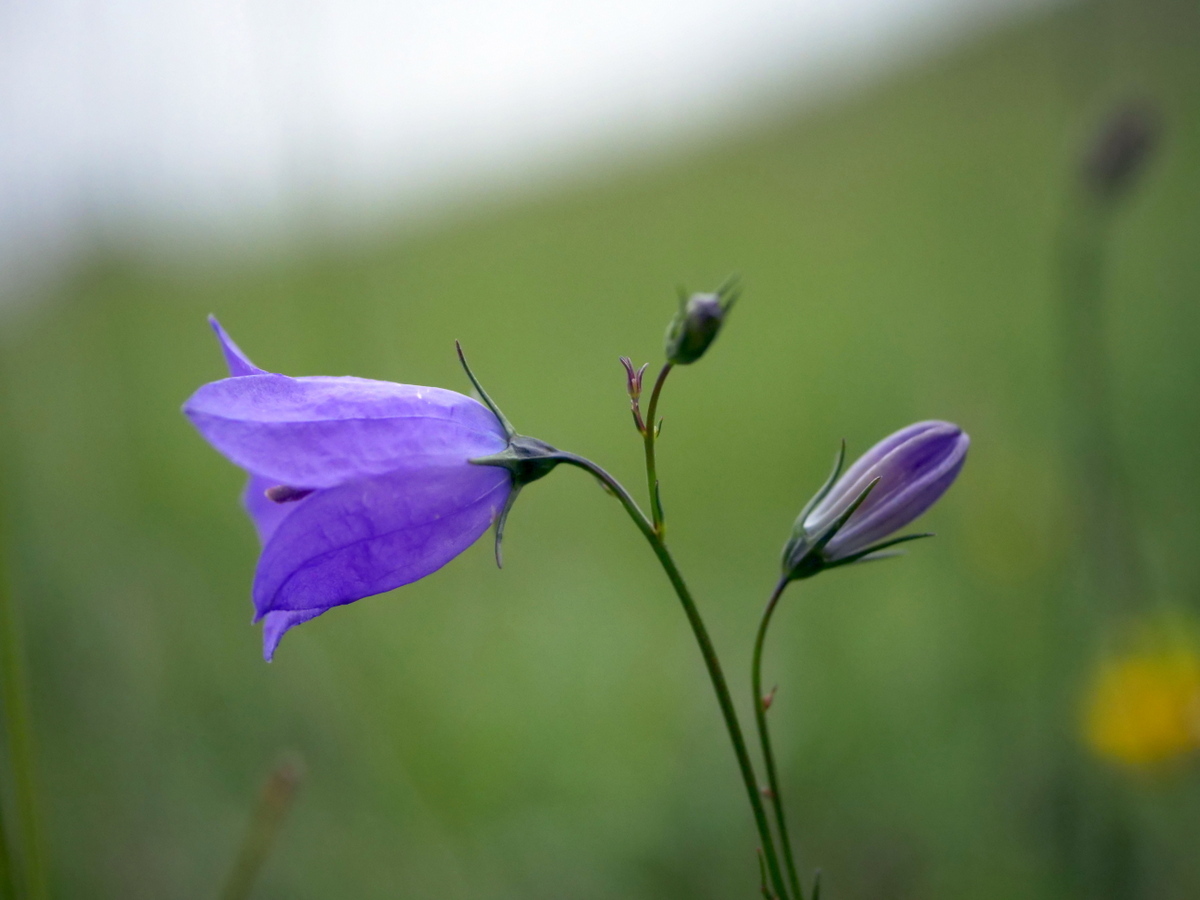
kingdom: Plantae
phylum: Tracheophyta
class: Magnoliopsida
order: Asterales
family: Campanulaceae
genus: Campanula
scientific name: Campanula rotundifolia
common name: Harebell
